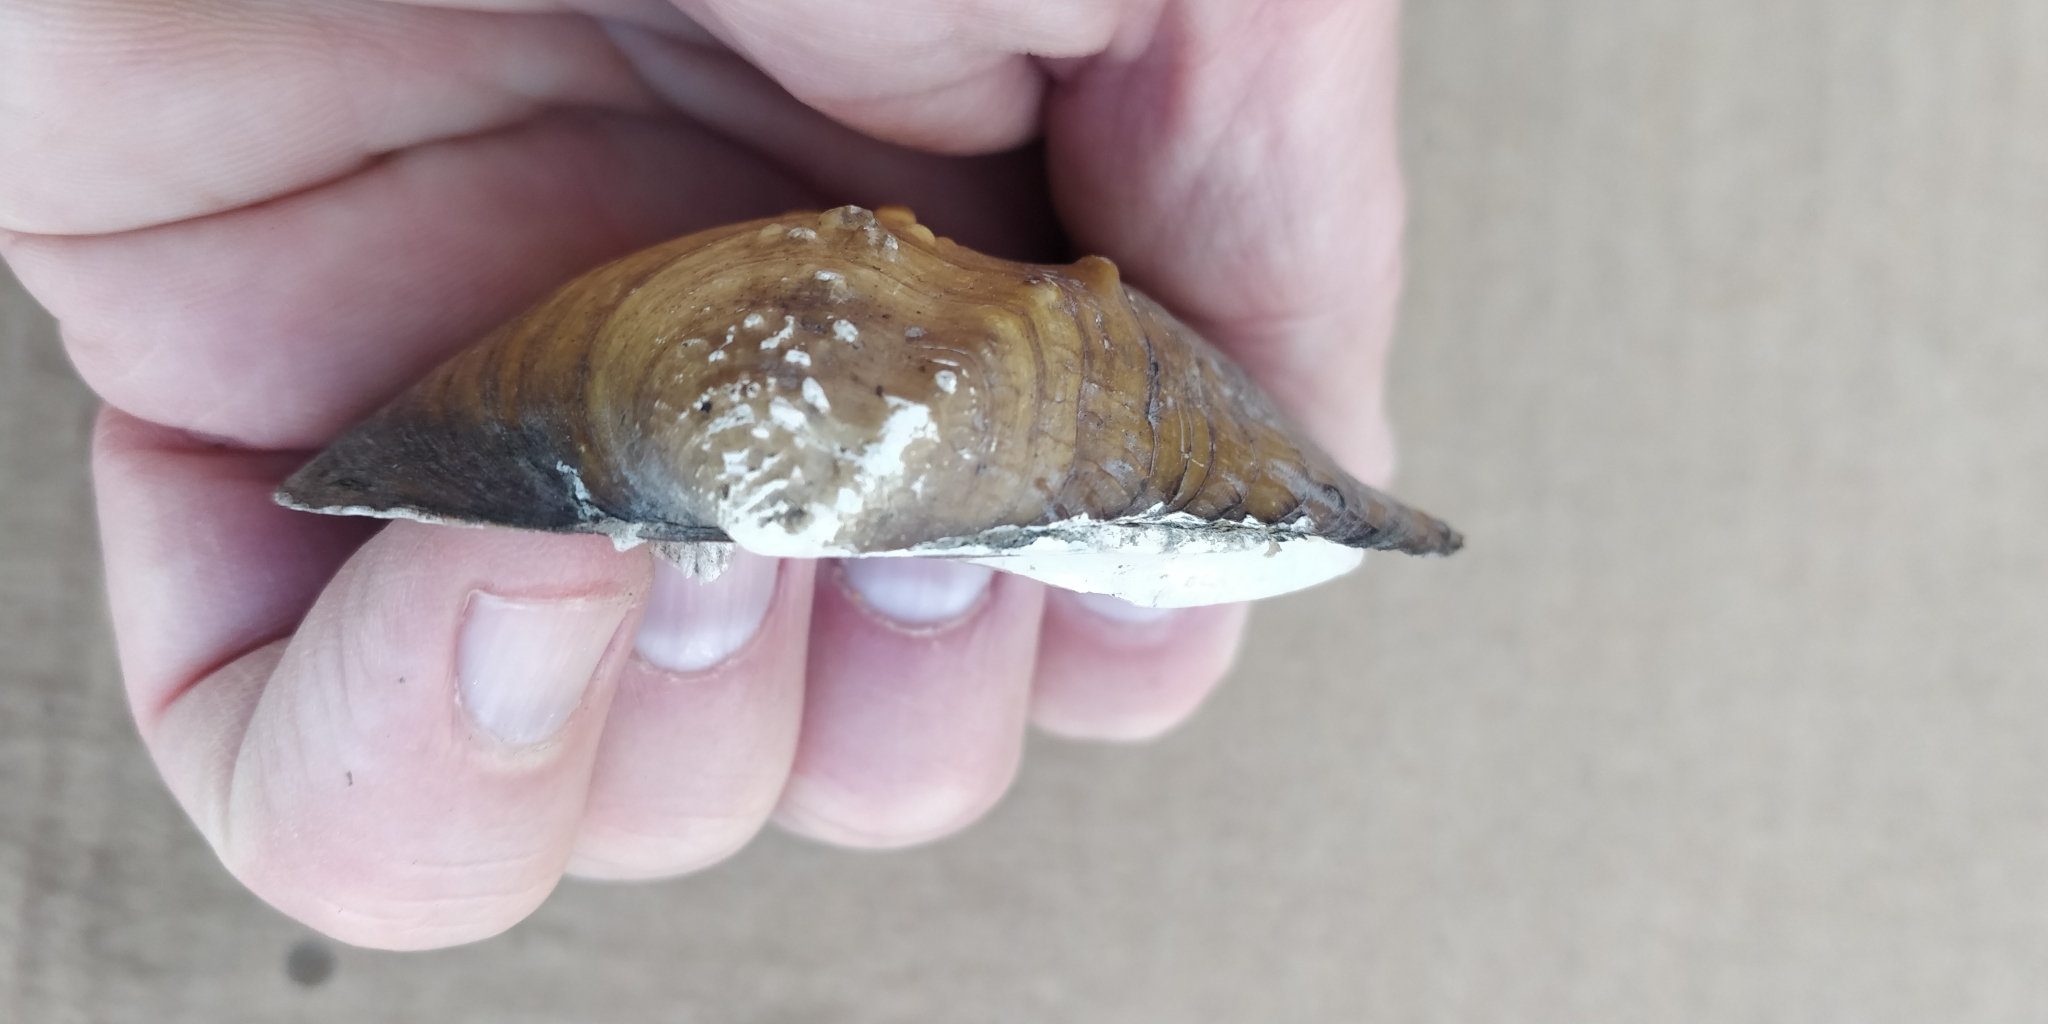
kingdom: Animalia
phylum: Mollusca
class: Bivalvia
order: Unionida
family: Unionidae
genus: Quadrula
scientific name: Quadrula quadrula
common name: Mapleleaf
